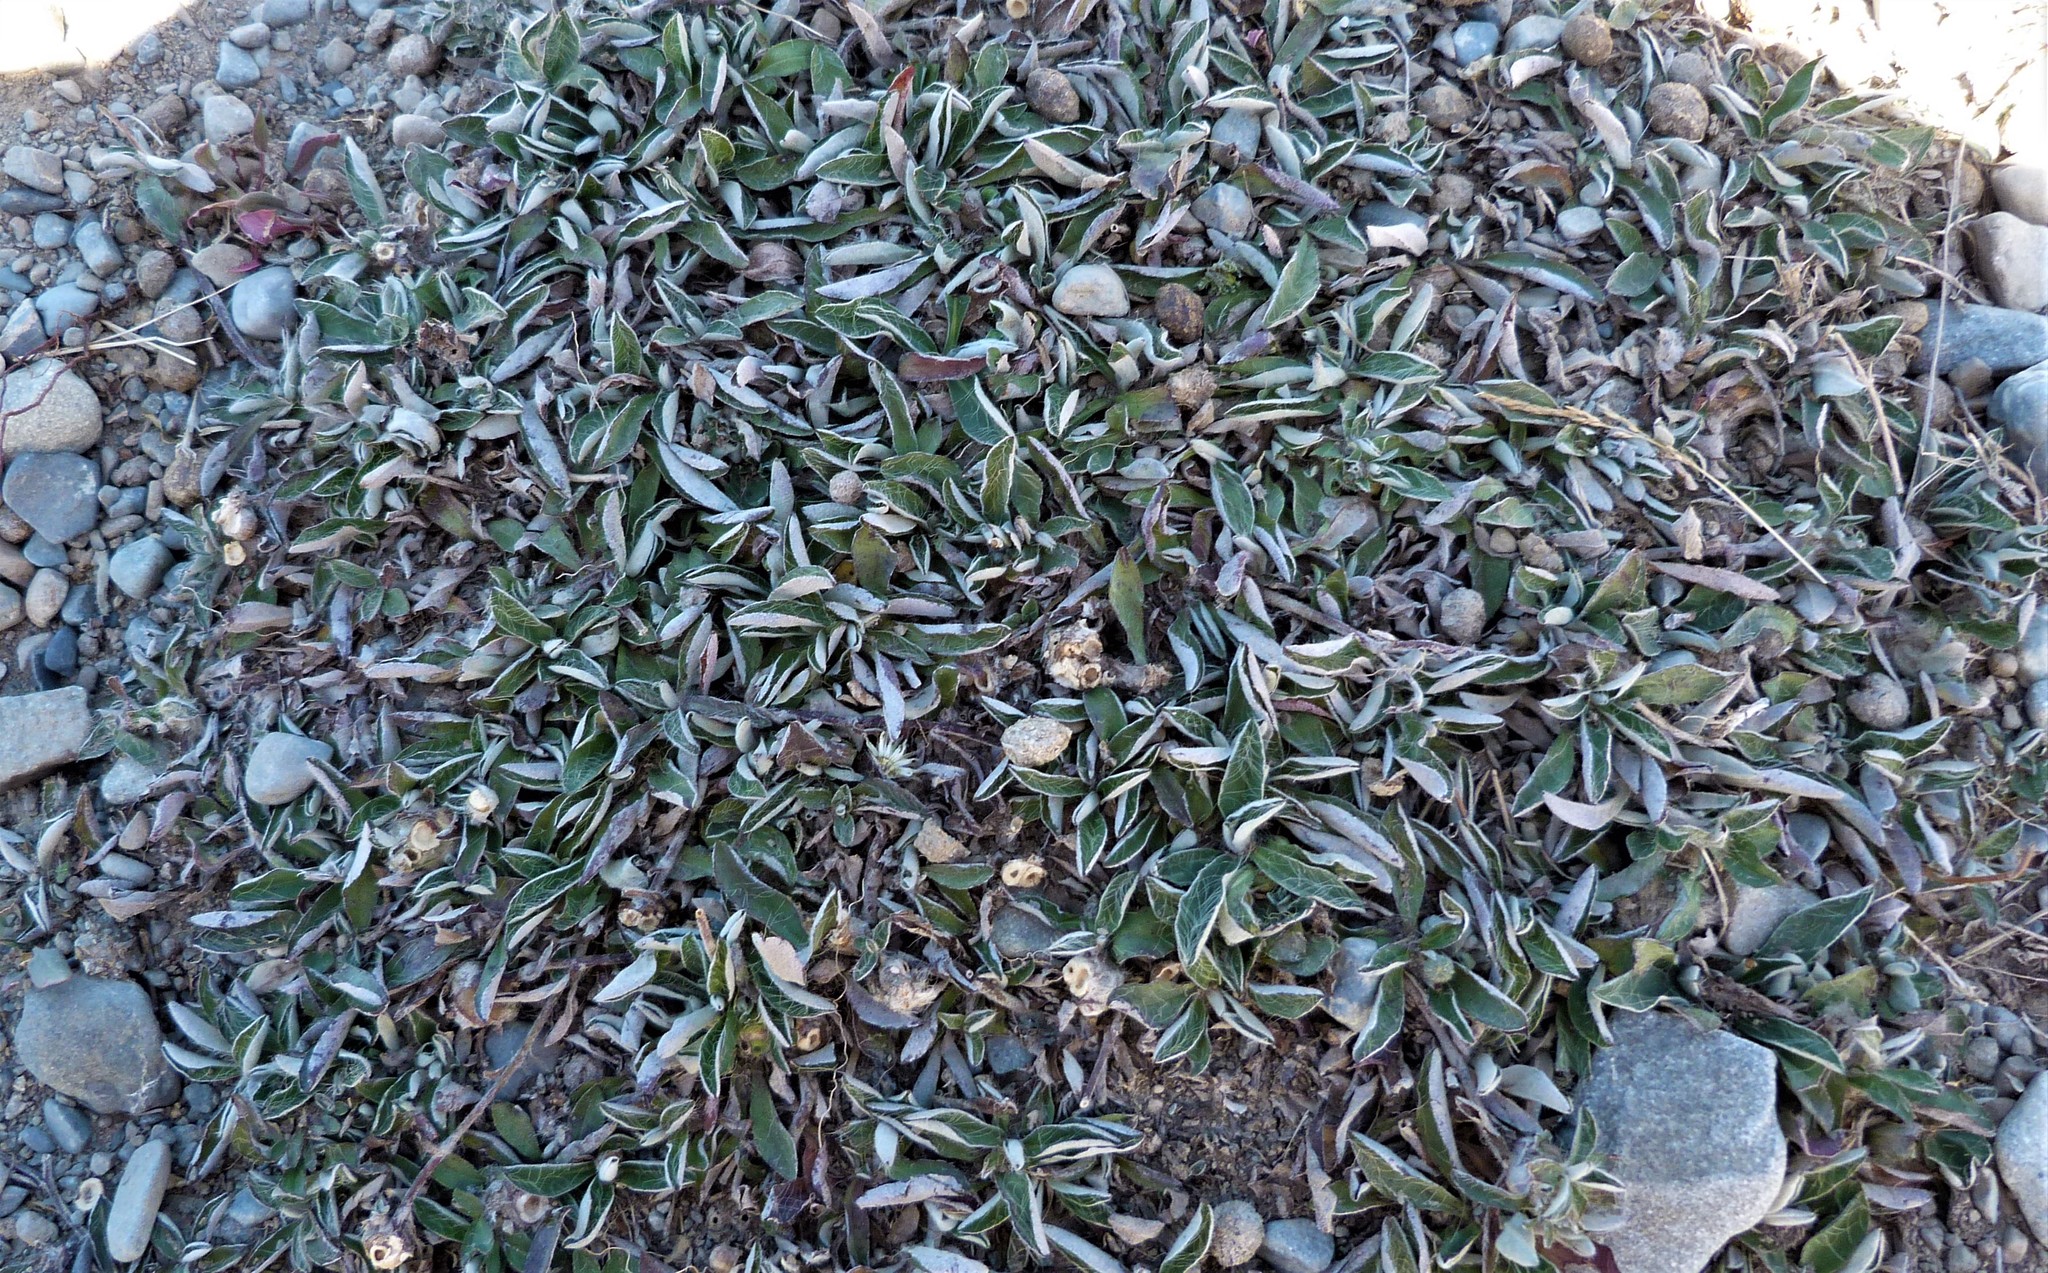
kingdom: Plantae
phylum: Tracheophyta
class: Magnoliopsida
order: Asterales
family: Asteraceae
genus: Pilosella
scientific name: Pilosella officinarum
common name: Mouse-ear hawkweed
